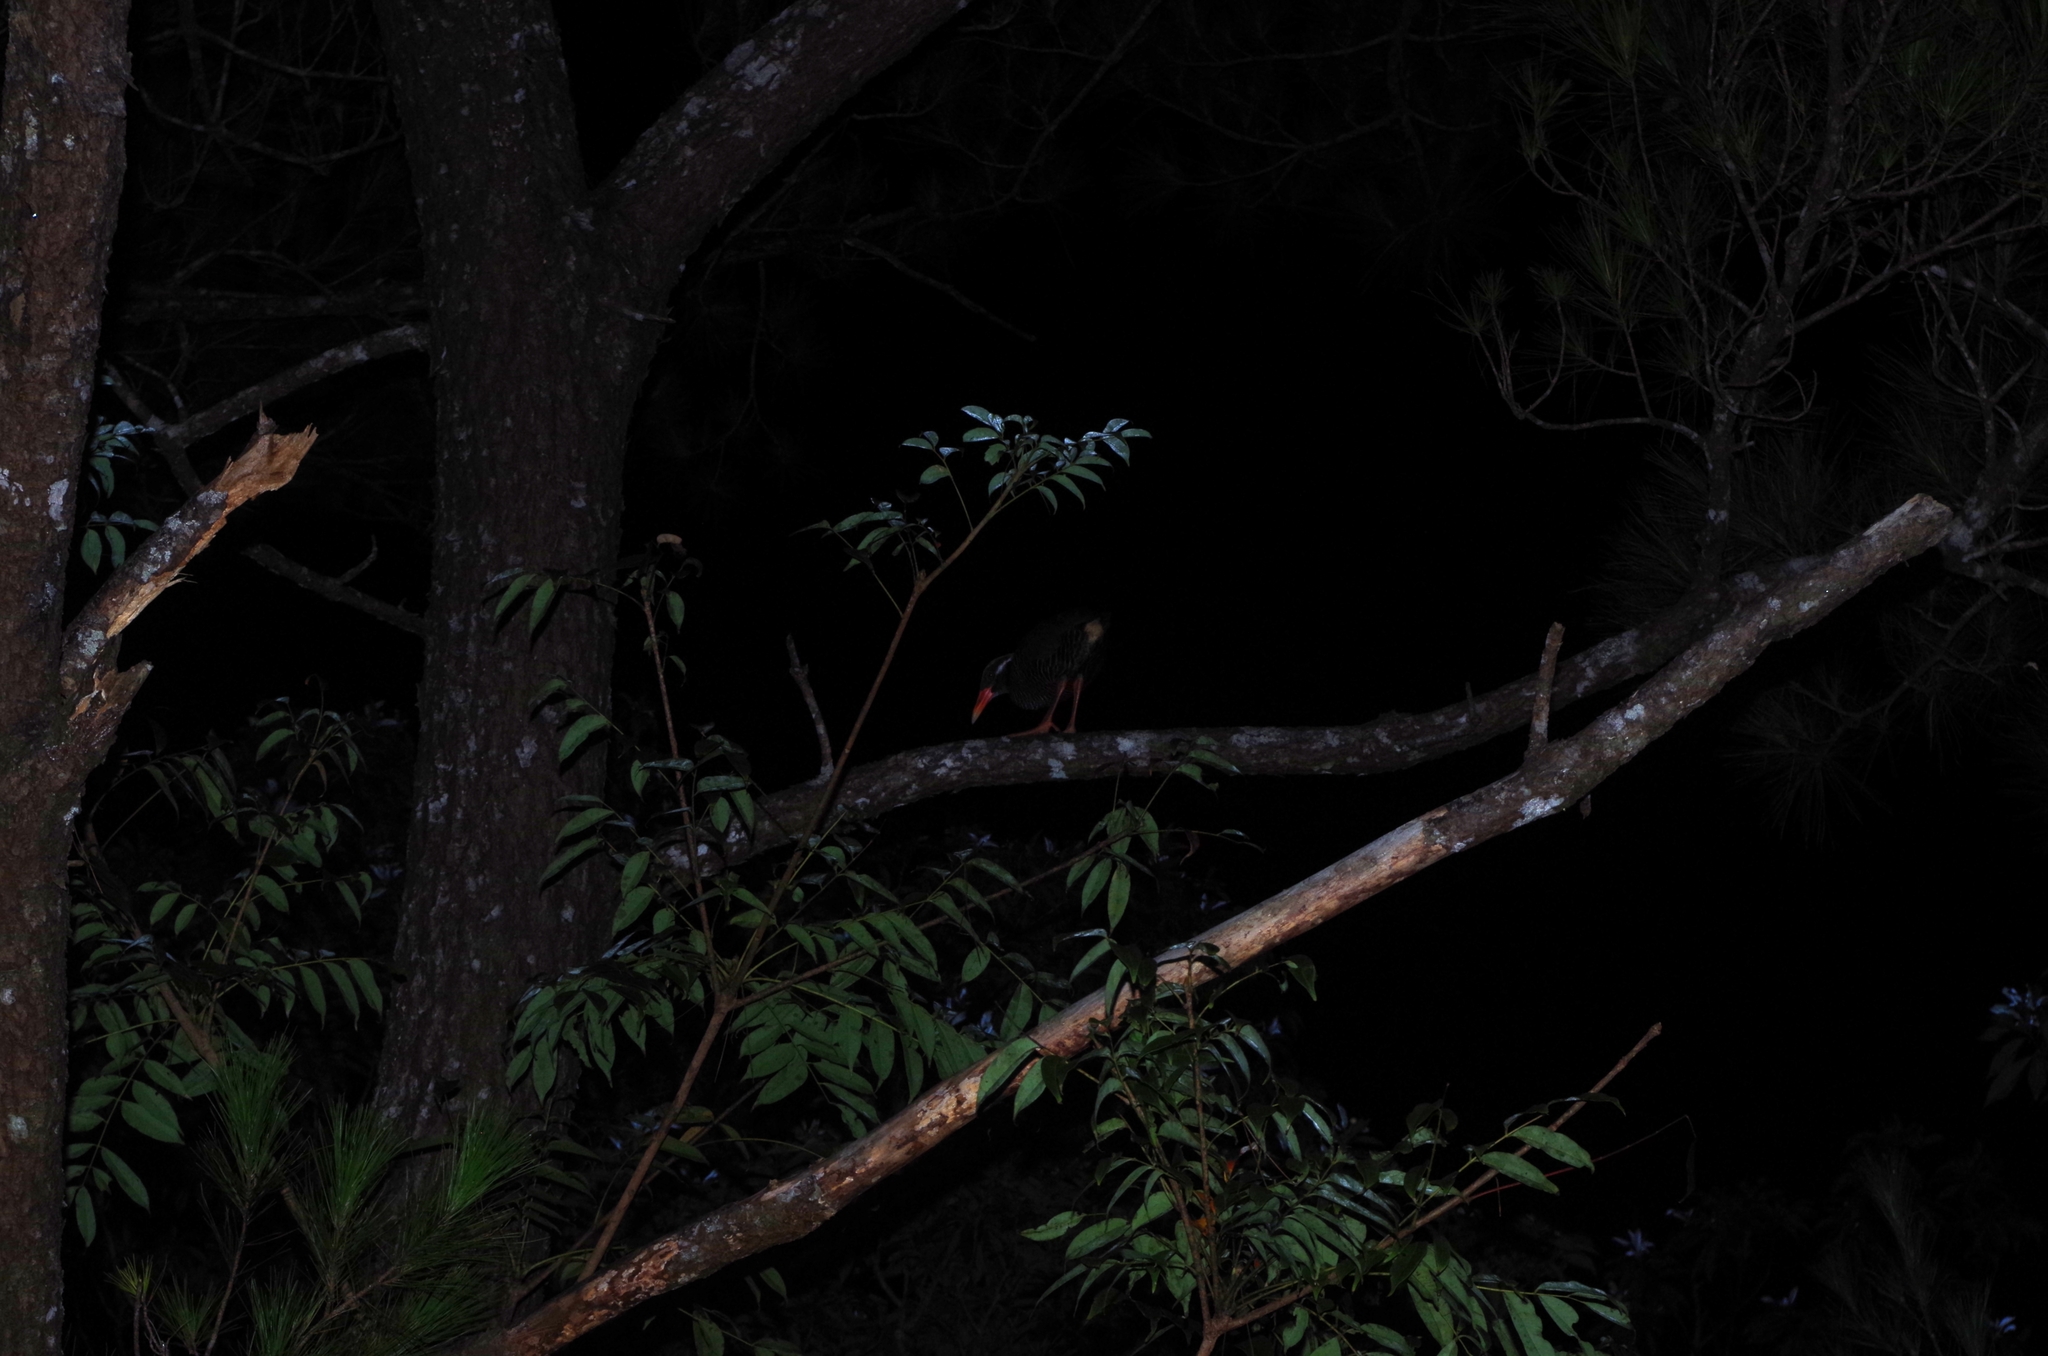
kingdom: Animalia
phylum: Chordata
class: Aves
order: Gruiformes
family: Rallidae
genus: Gallirallus
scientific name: Gallirallus okinawae
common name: Okinawa rail
